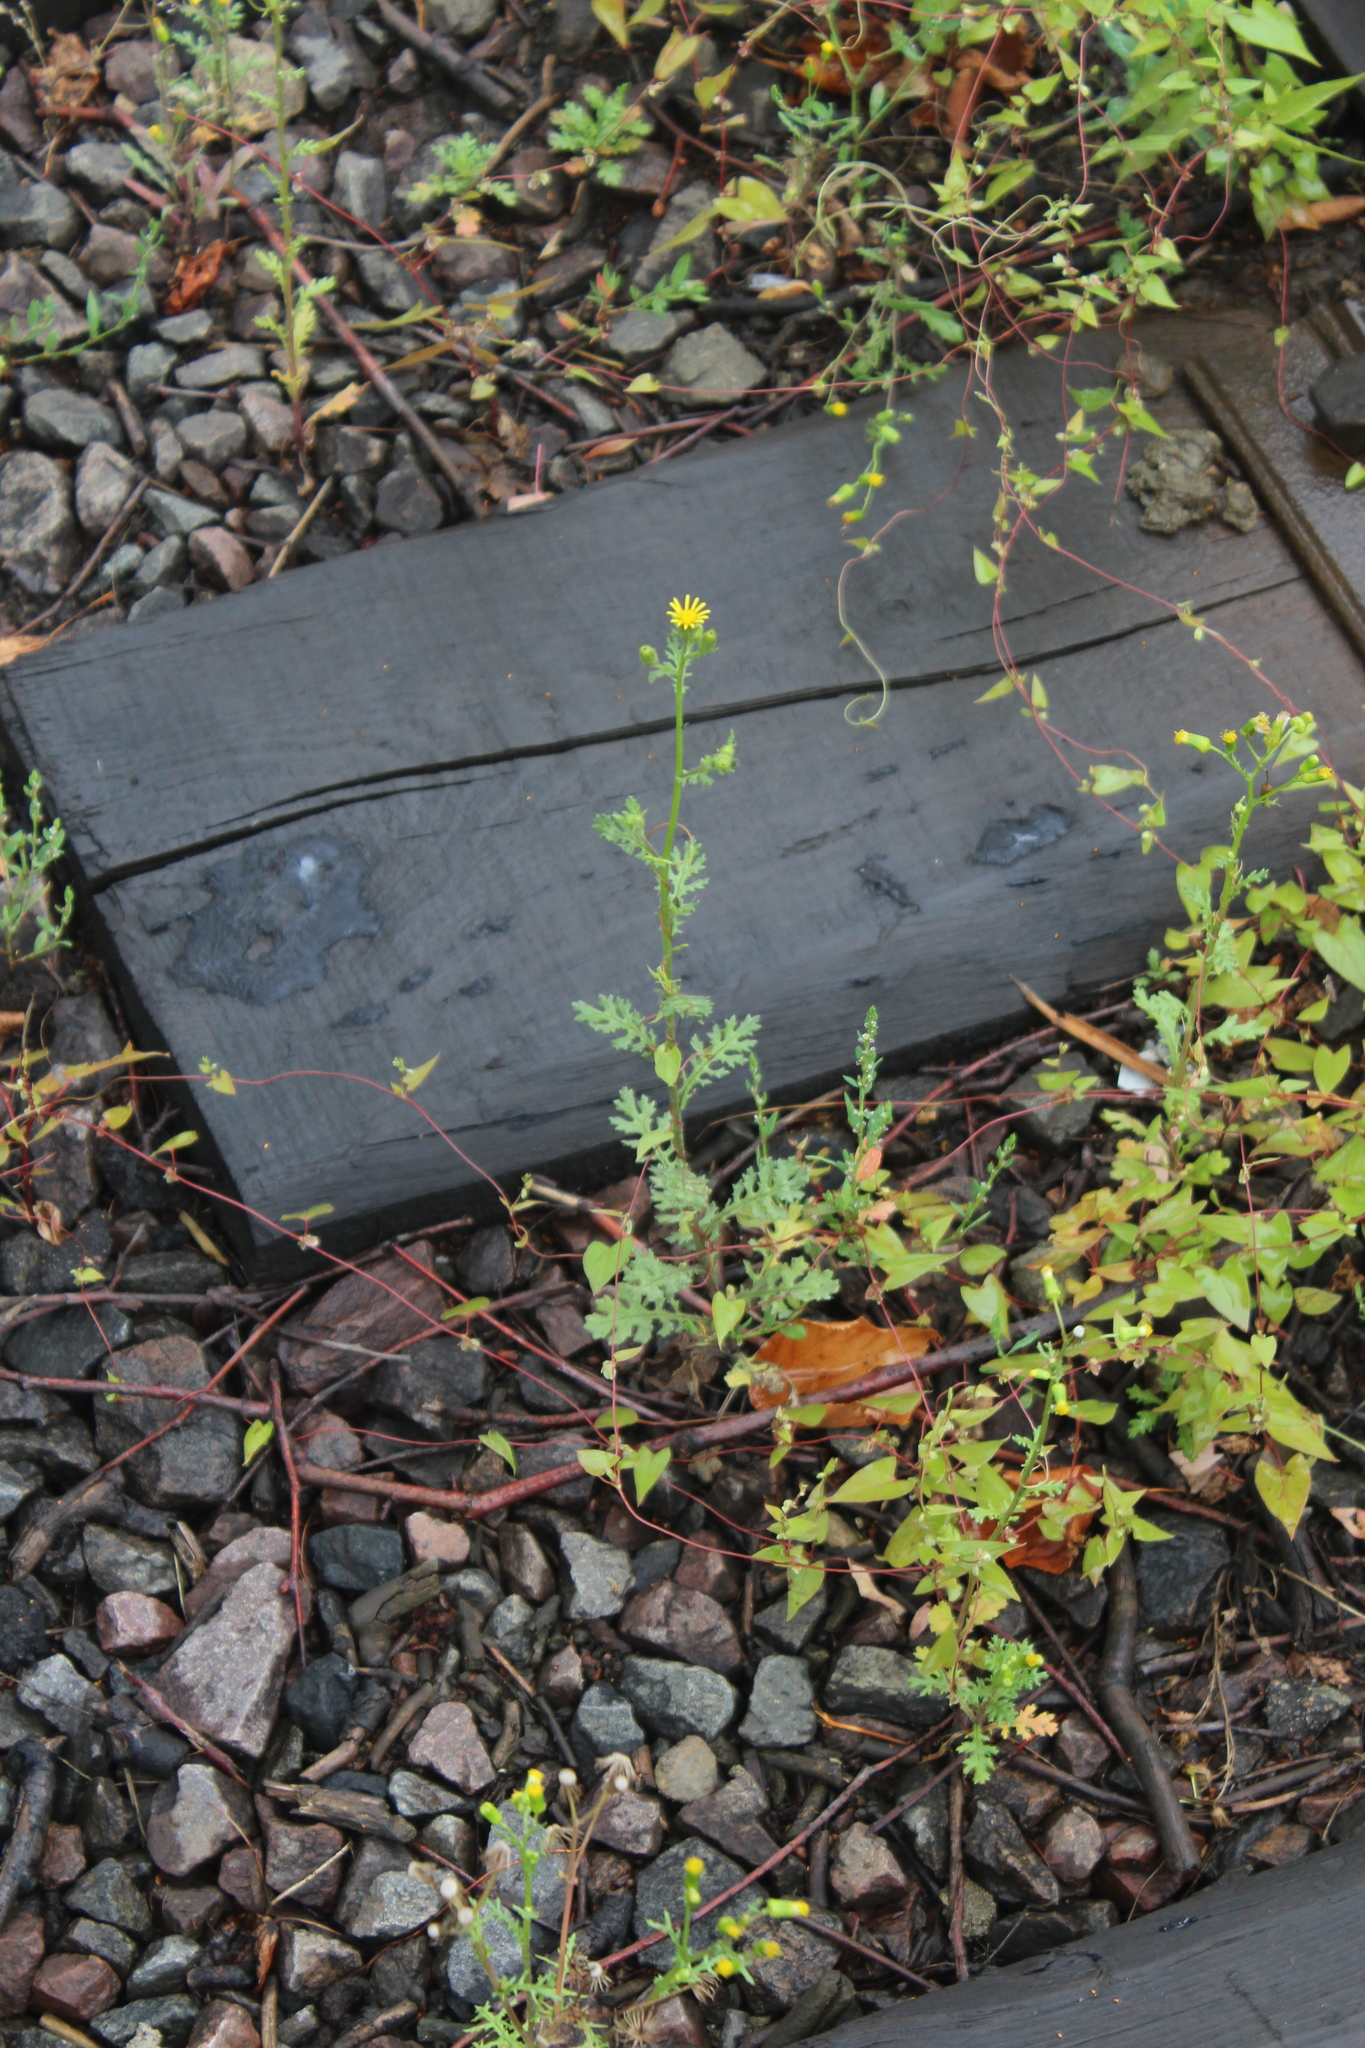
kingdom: Plantae
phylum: Tracheophyta
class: Magnoliopsida
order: Asterales
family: Asteraceae
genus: Senecio
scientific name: Senecio viscosus
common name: Sticky groundsel
